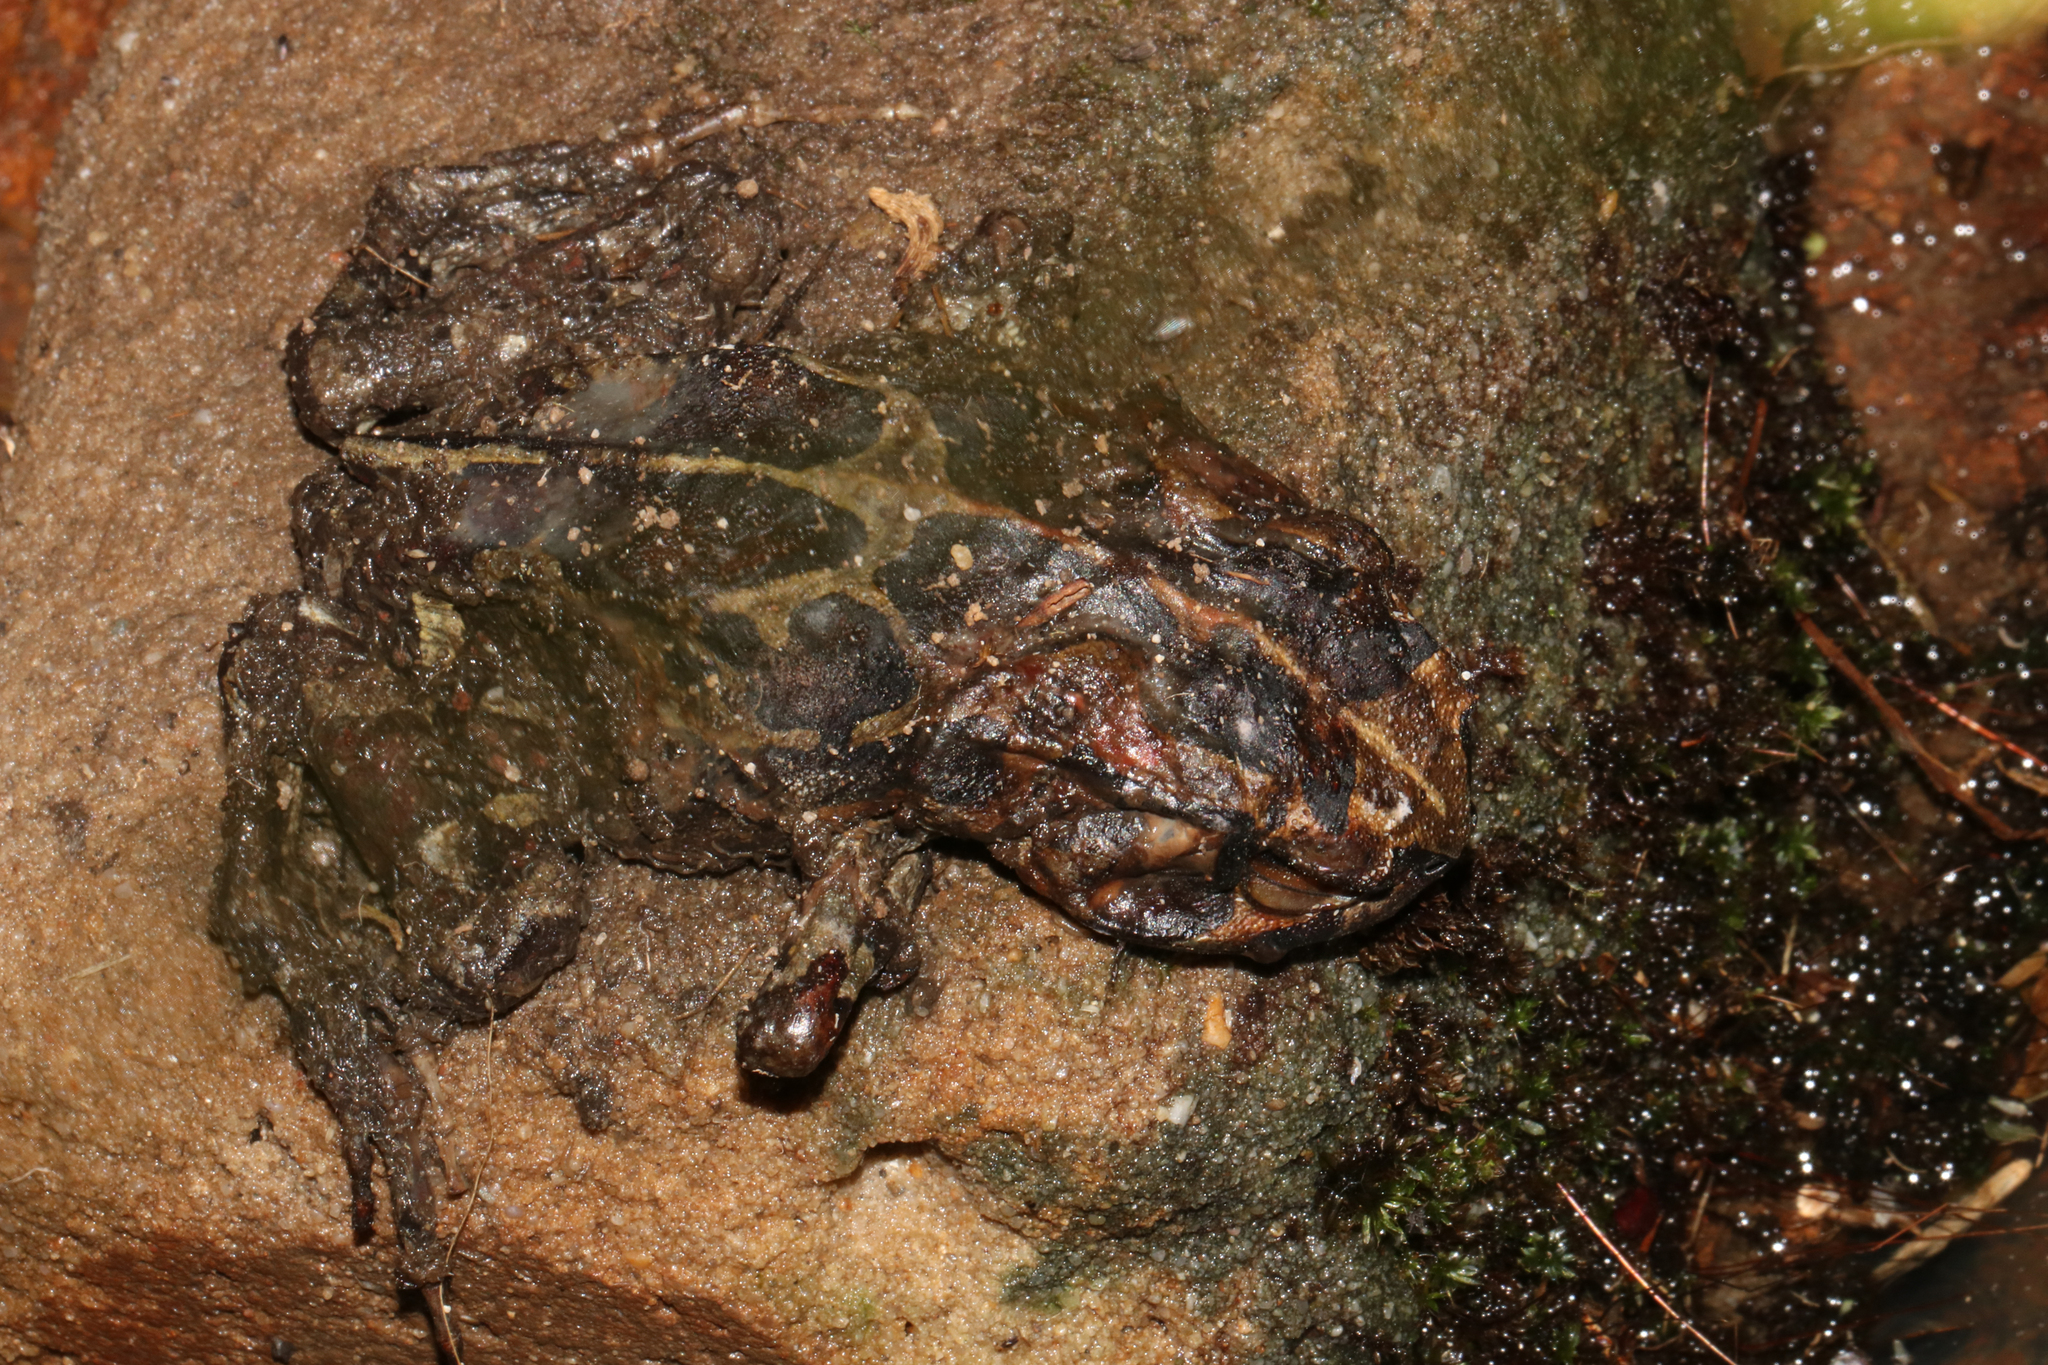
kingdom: Animalia
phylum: Chordata
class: Amphibia
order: Anura
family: Bufonidae
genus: Sclerophrys
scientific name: Sclerophrys pantherina
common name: Panther toad
